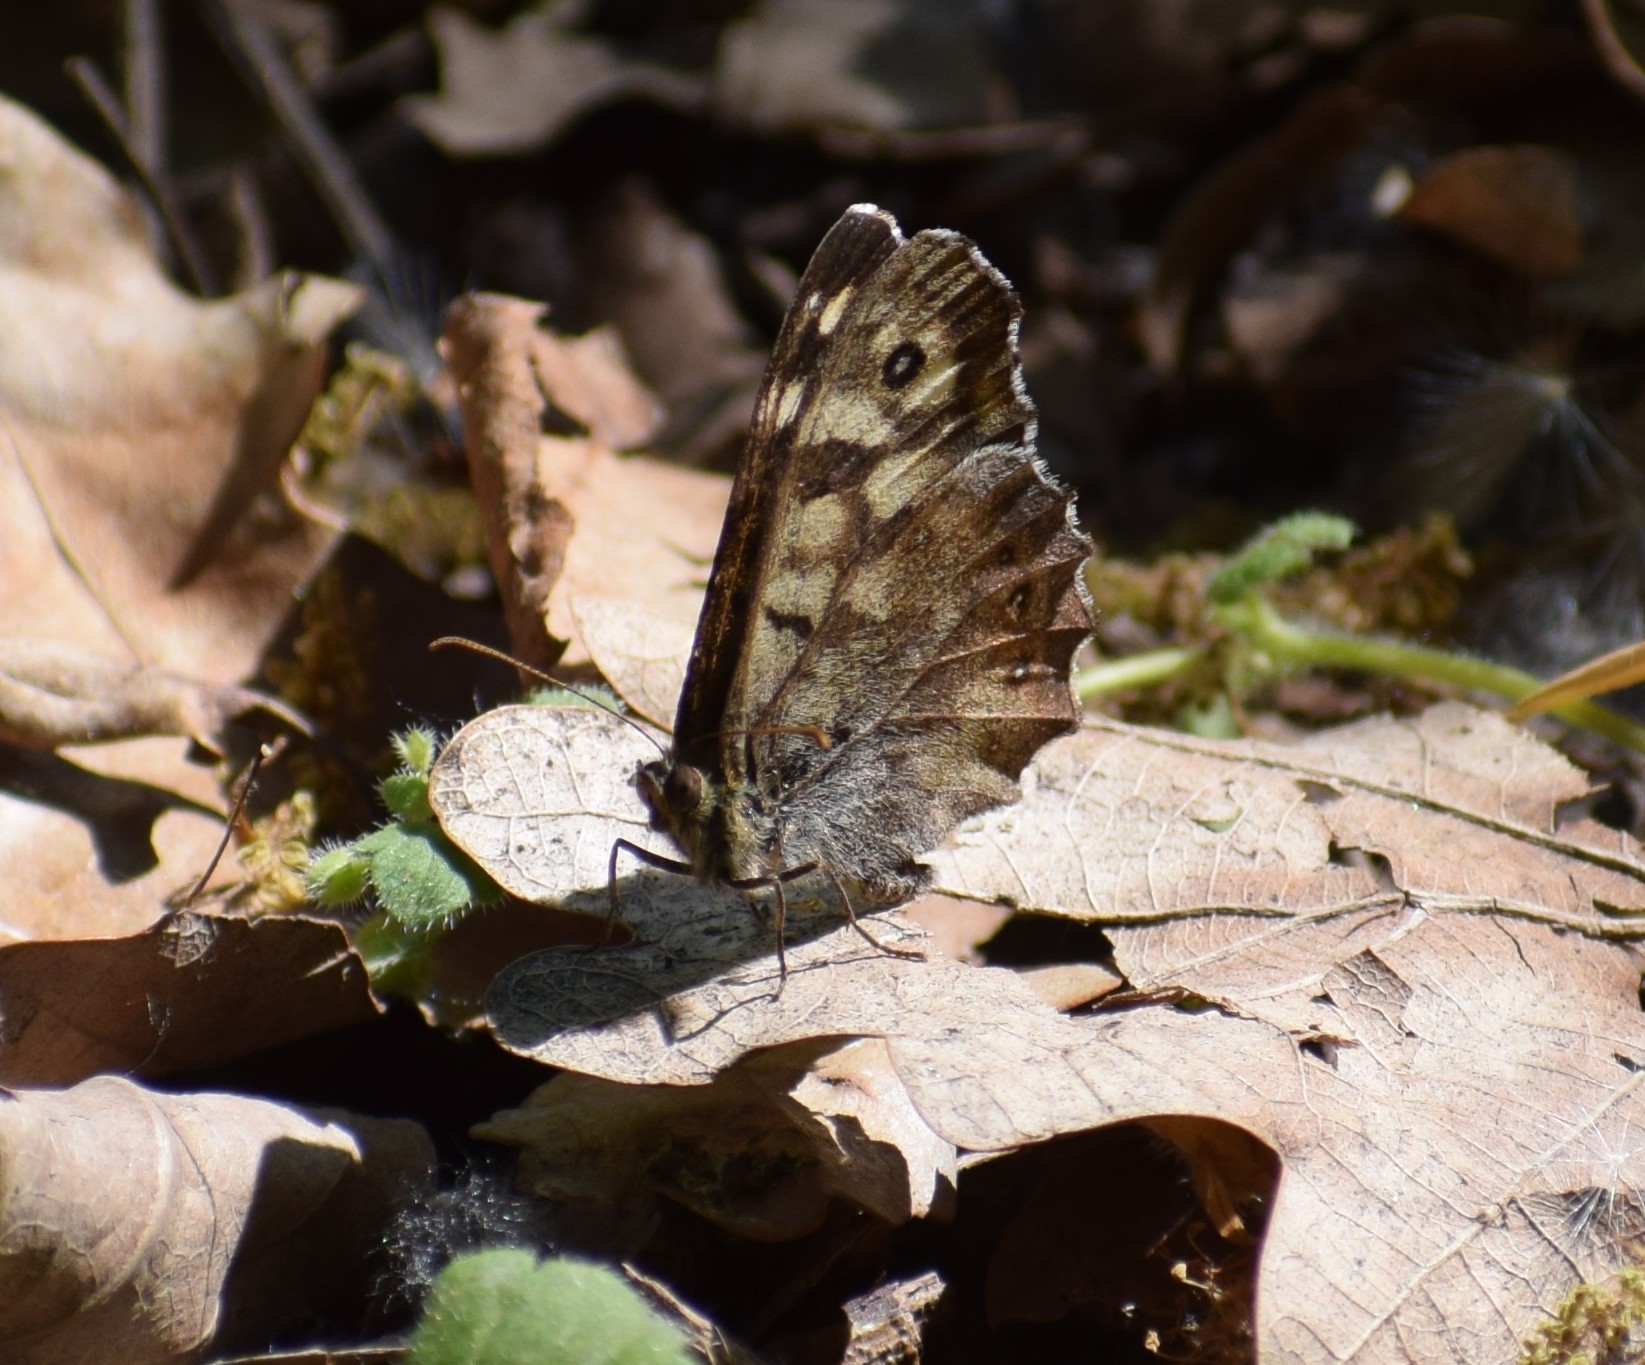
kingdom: Animalia
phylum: Arthropoda
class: Insecta
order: Lepidoptera
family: Nymphalidae
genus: Pararge
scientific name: Pararge aegeria
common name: Speckled wood
